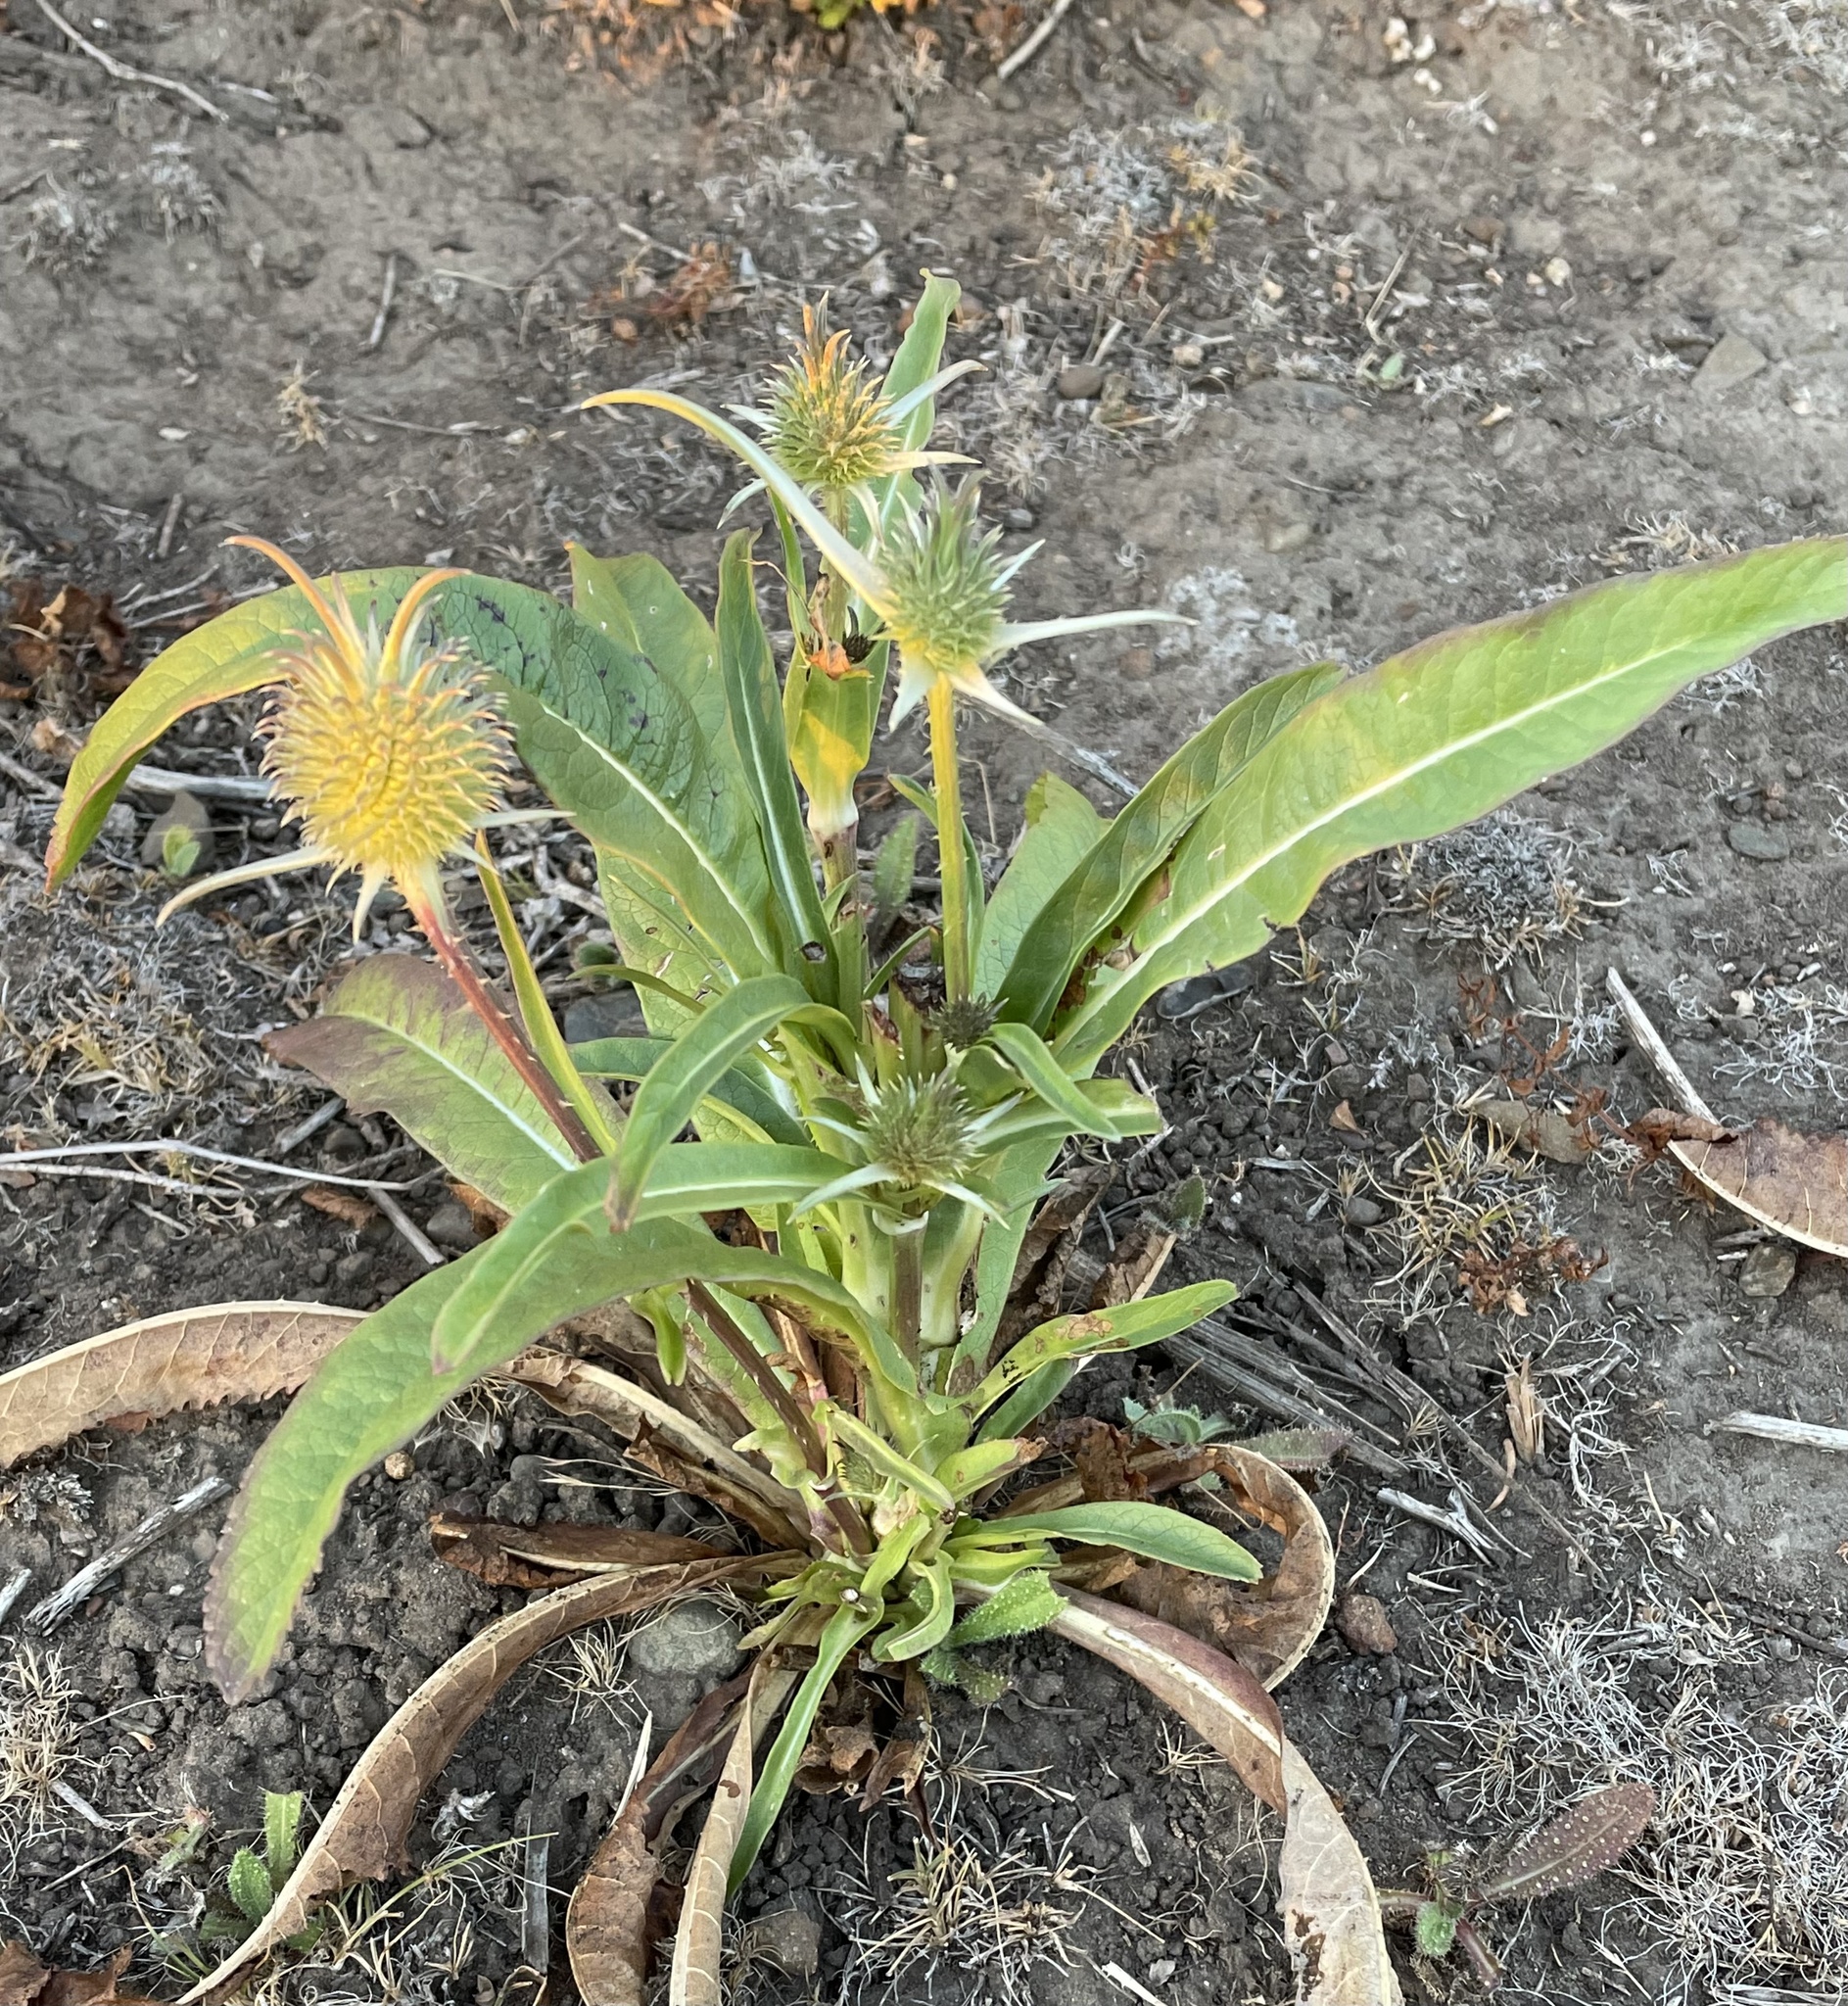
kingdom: Plantae
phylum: Tracheophyta
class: Magnoliopsida
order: Dipsacales
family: Caprifoliaceae
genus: Dipsacus
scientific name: Dipsacus sativus
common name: Fuller's teasel
